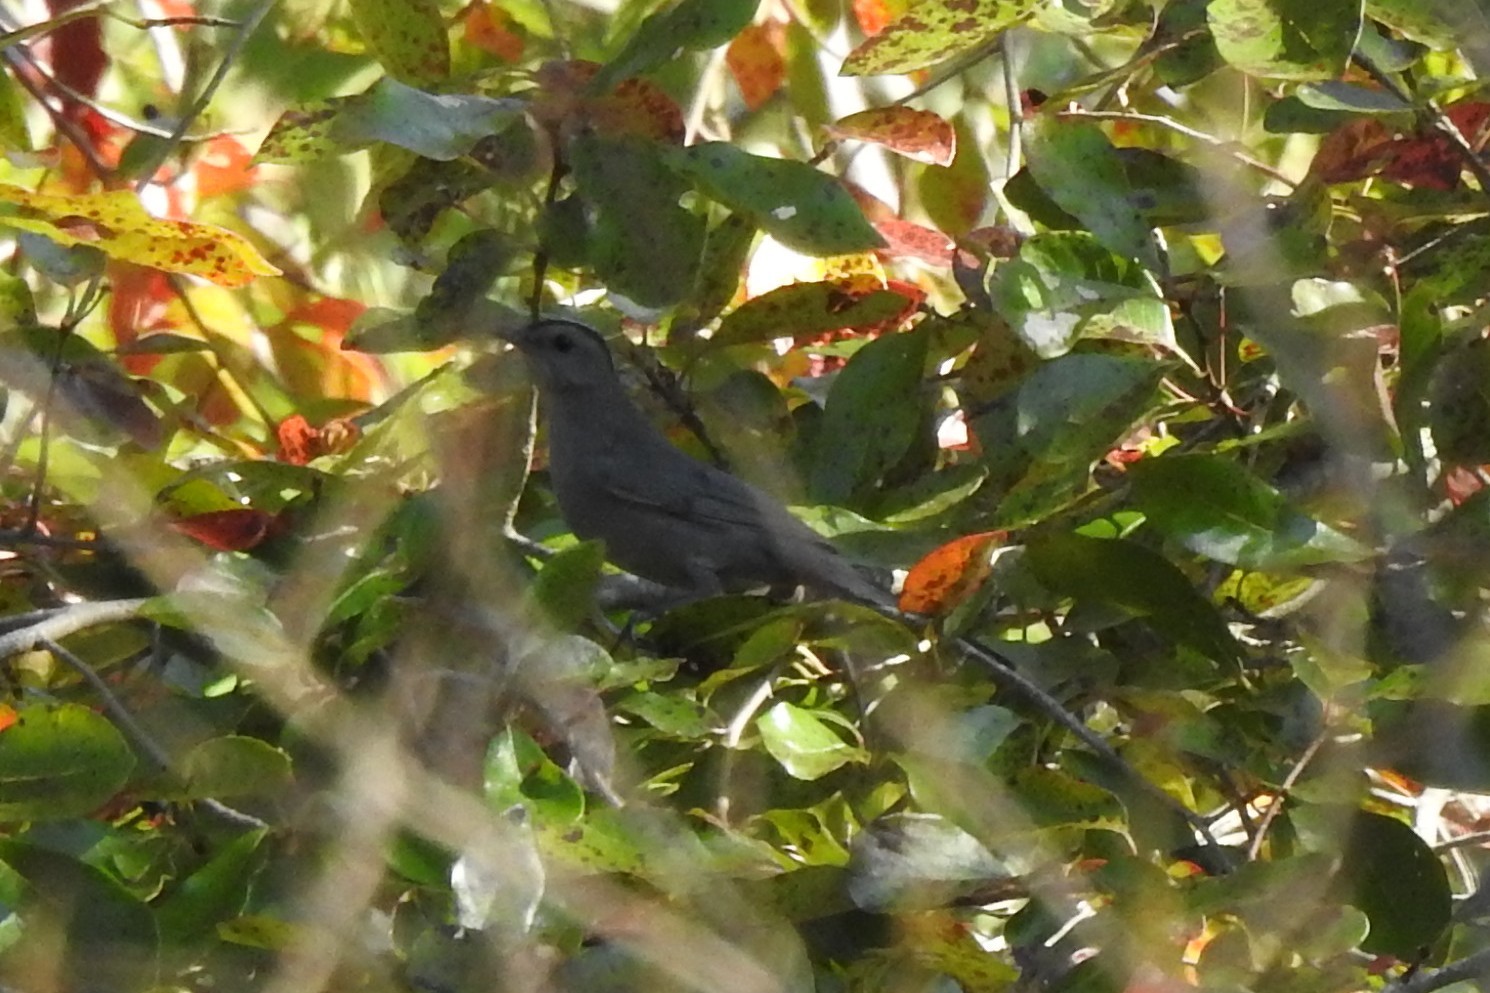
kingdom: Animalia
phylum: Chordata
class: Aves
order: Passeriformes
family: Mimidae
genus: Dumetella
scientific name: Dumetella carolinensis
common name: Gray catbird
